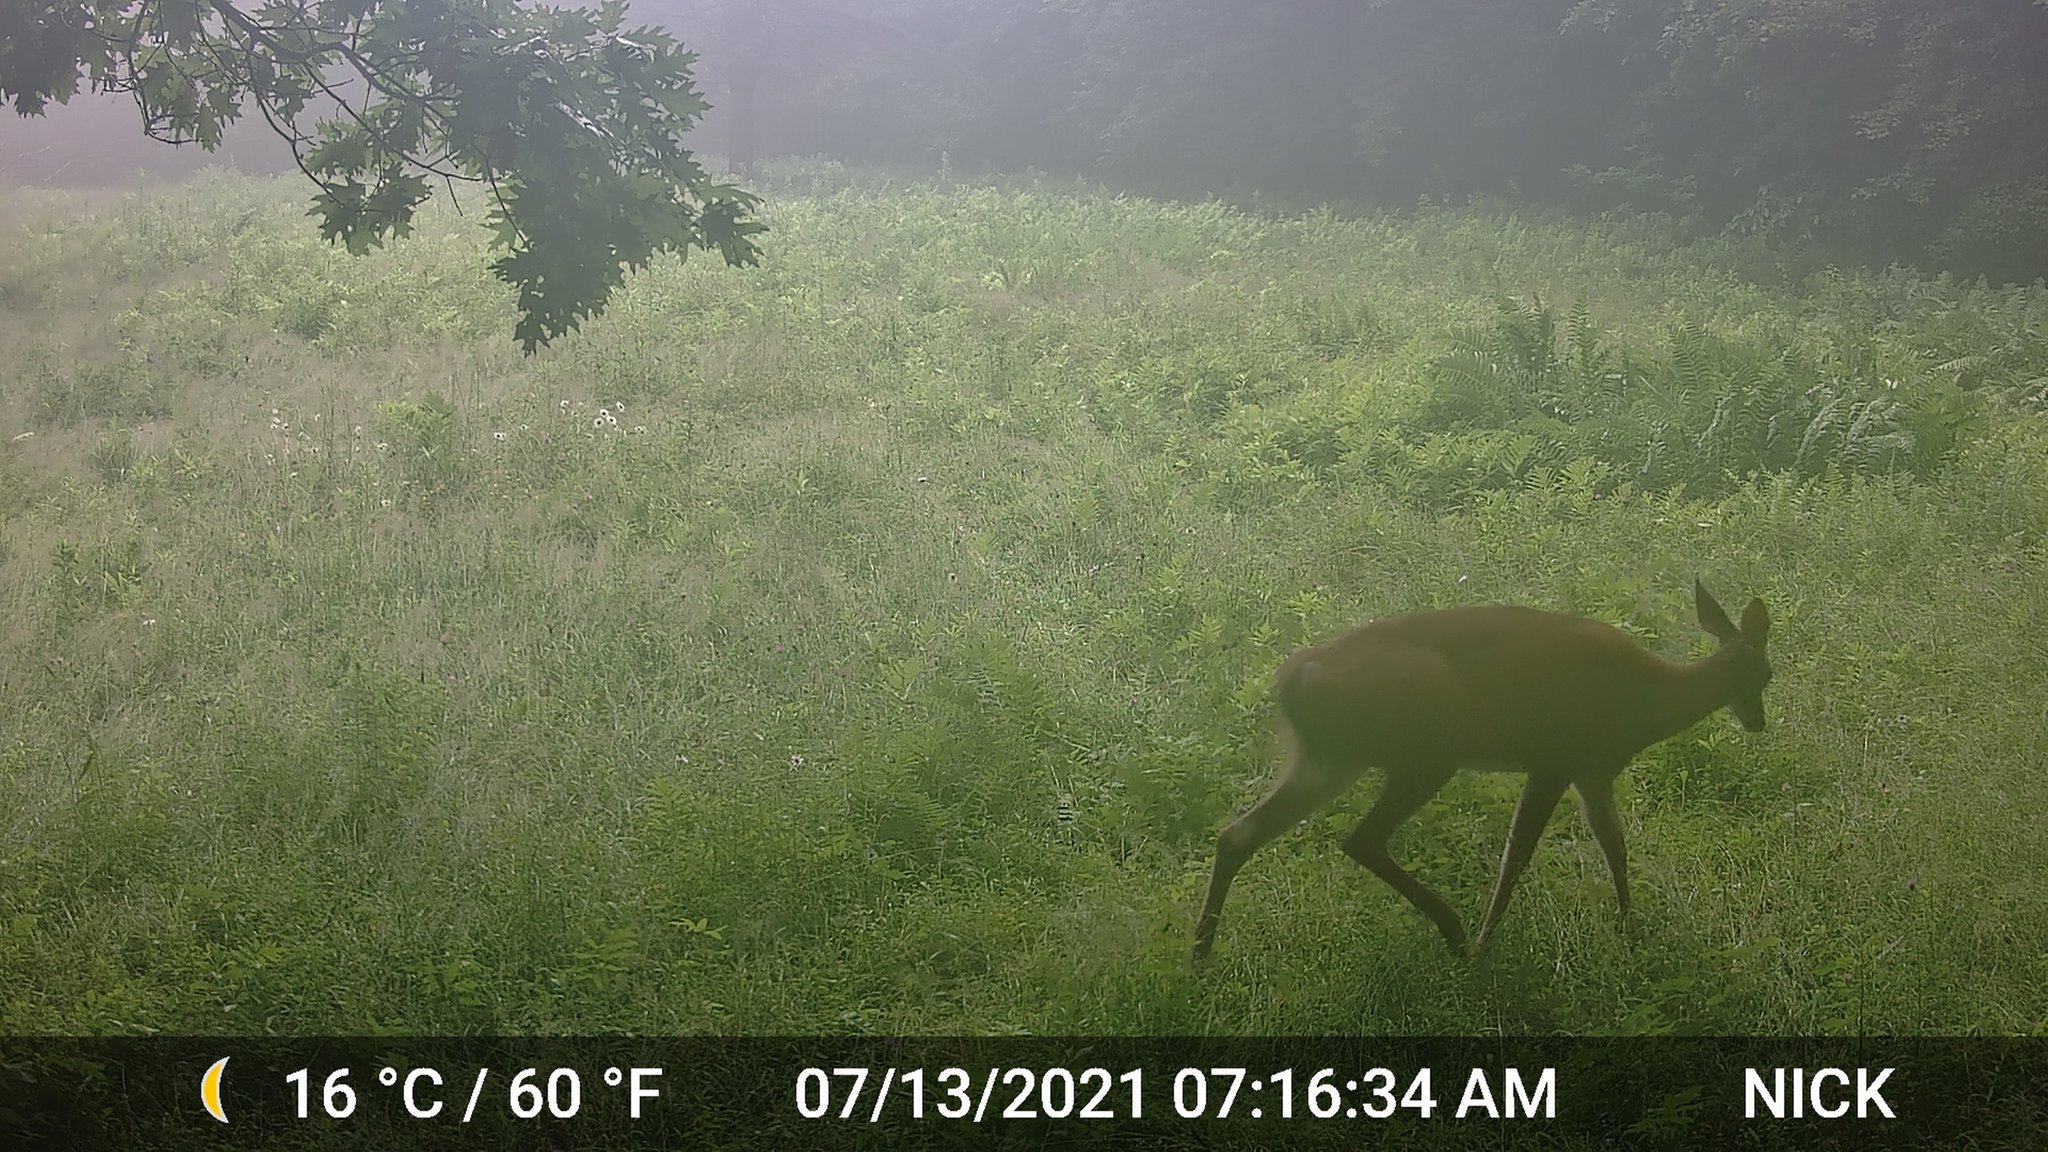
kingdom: Animalia
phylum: Chordata
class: Mammalia
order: Artiodactyla
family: Cervidae
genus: Odocoileus
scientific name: Odocoileus virginianus
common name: White-tailed deer
